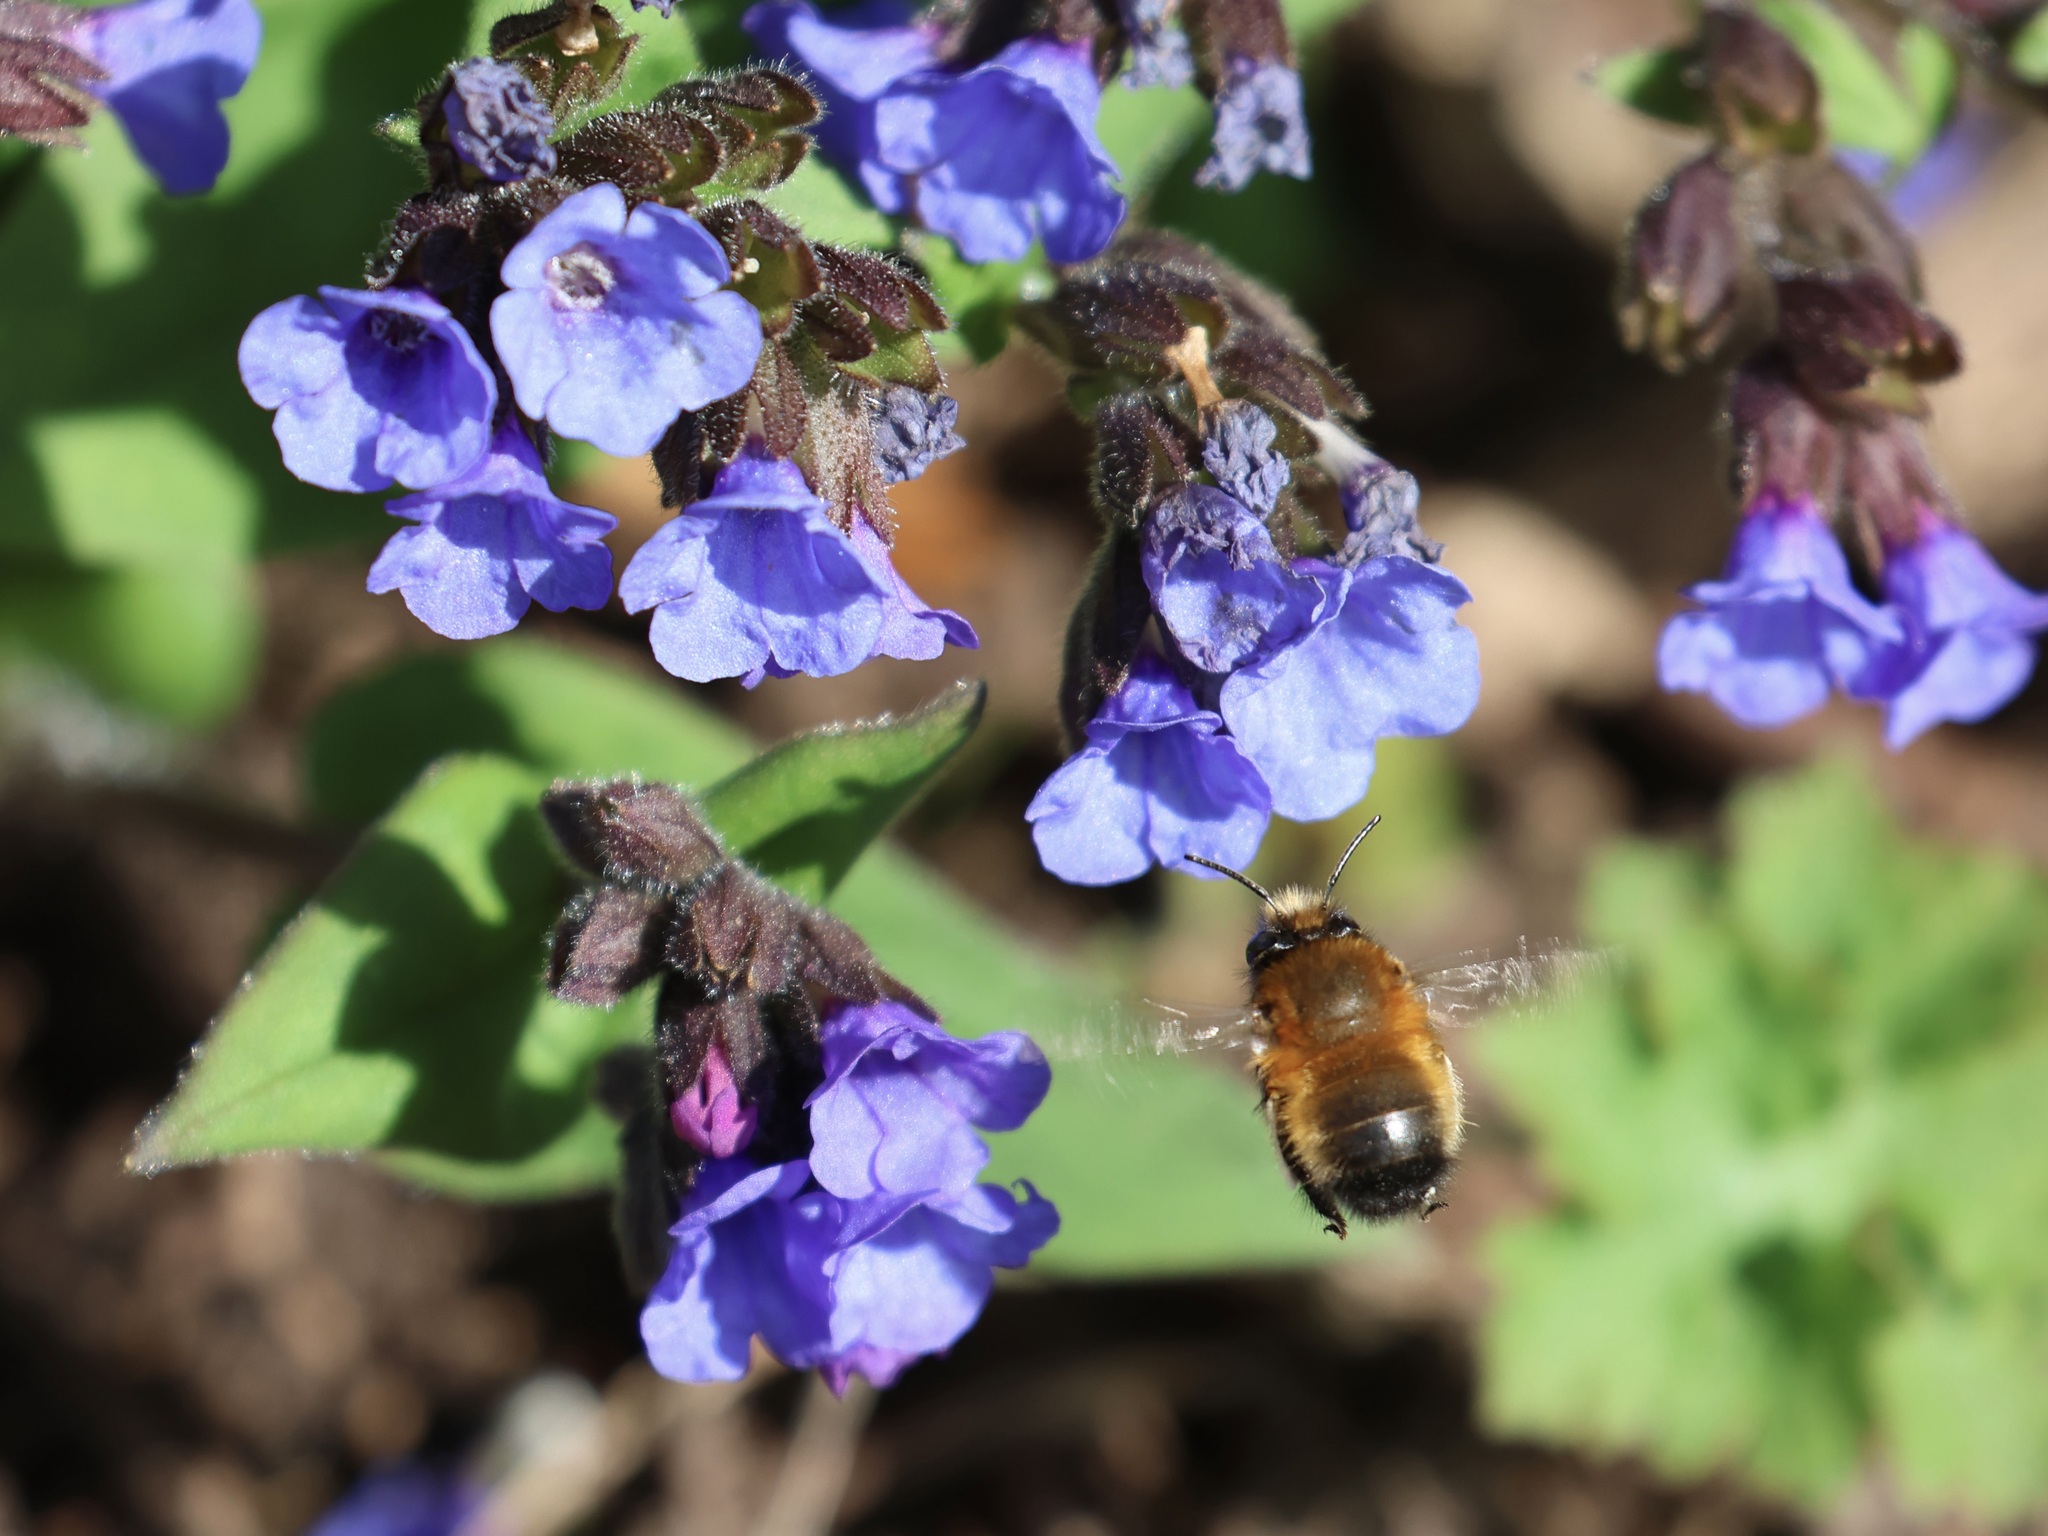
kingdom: Animalia
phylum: Arthropoda
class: Insecta
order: Hymenoptera
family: Apidae
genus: Anthophora
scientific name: Anthophora plumipes
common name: Hairy-footed flower bee
